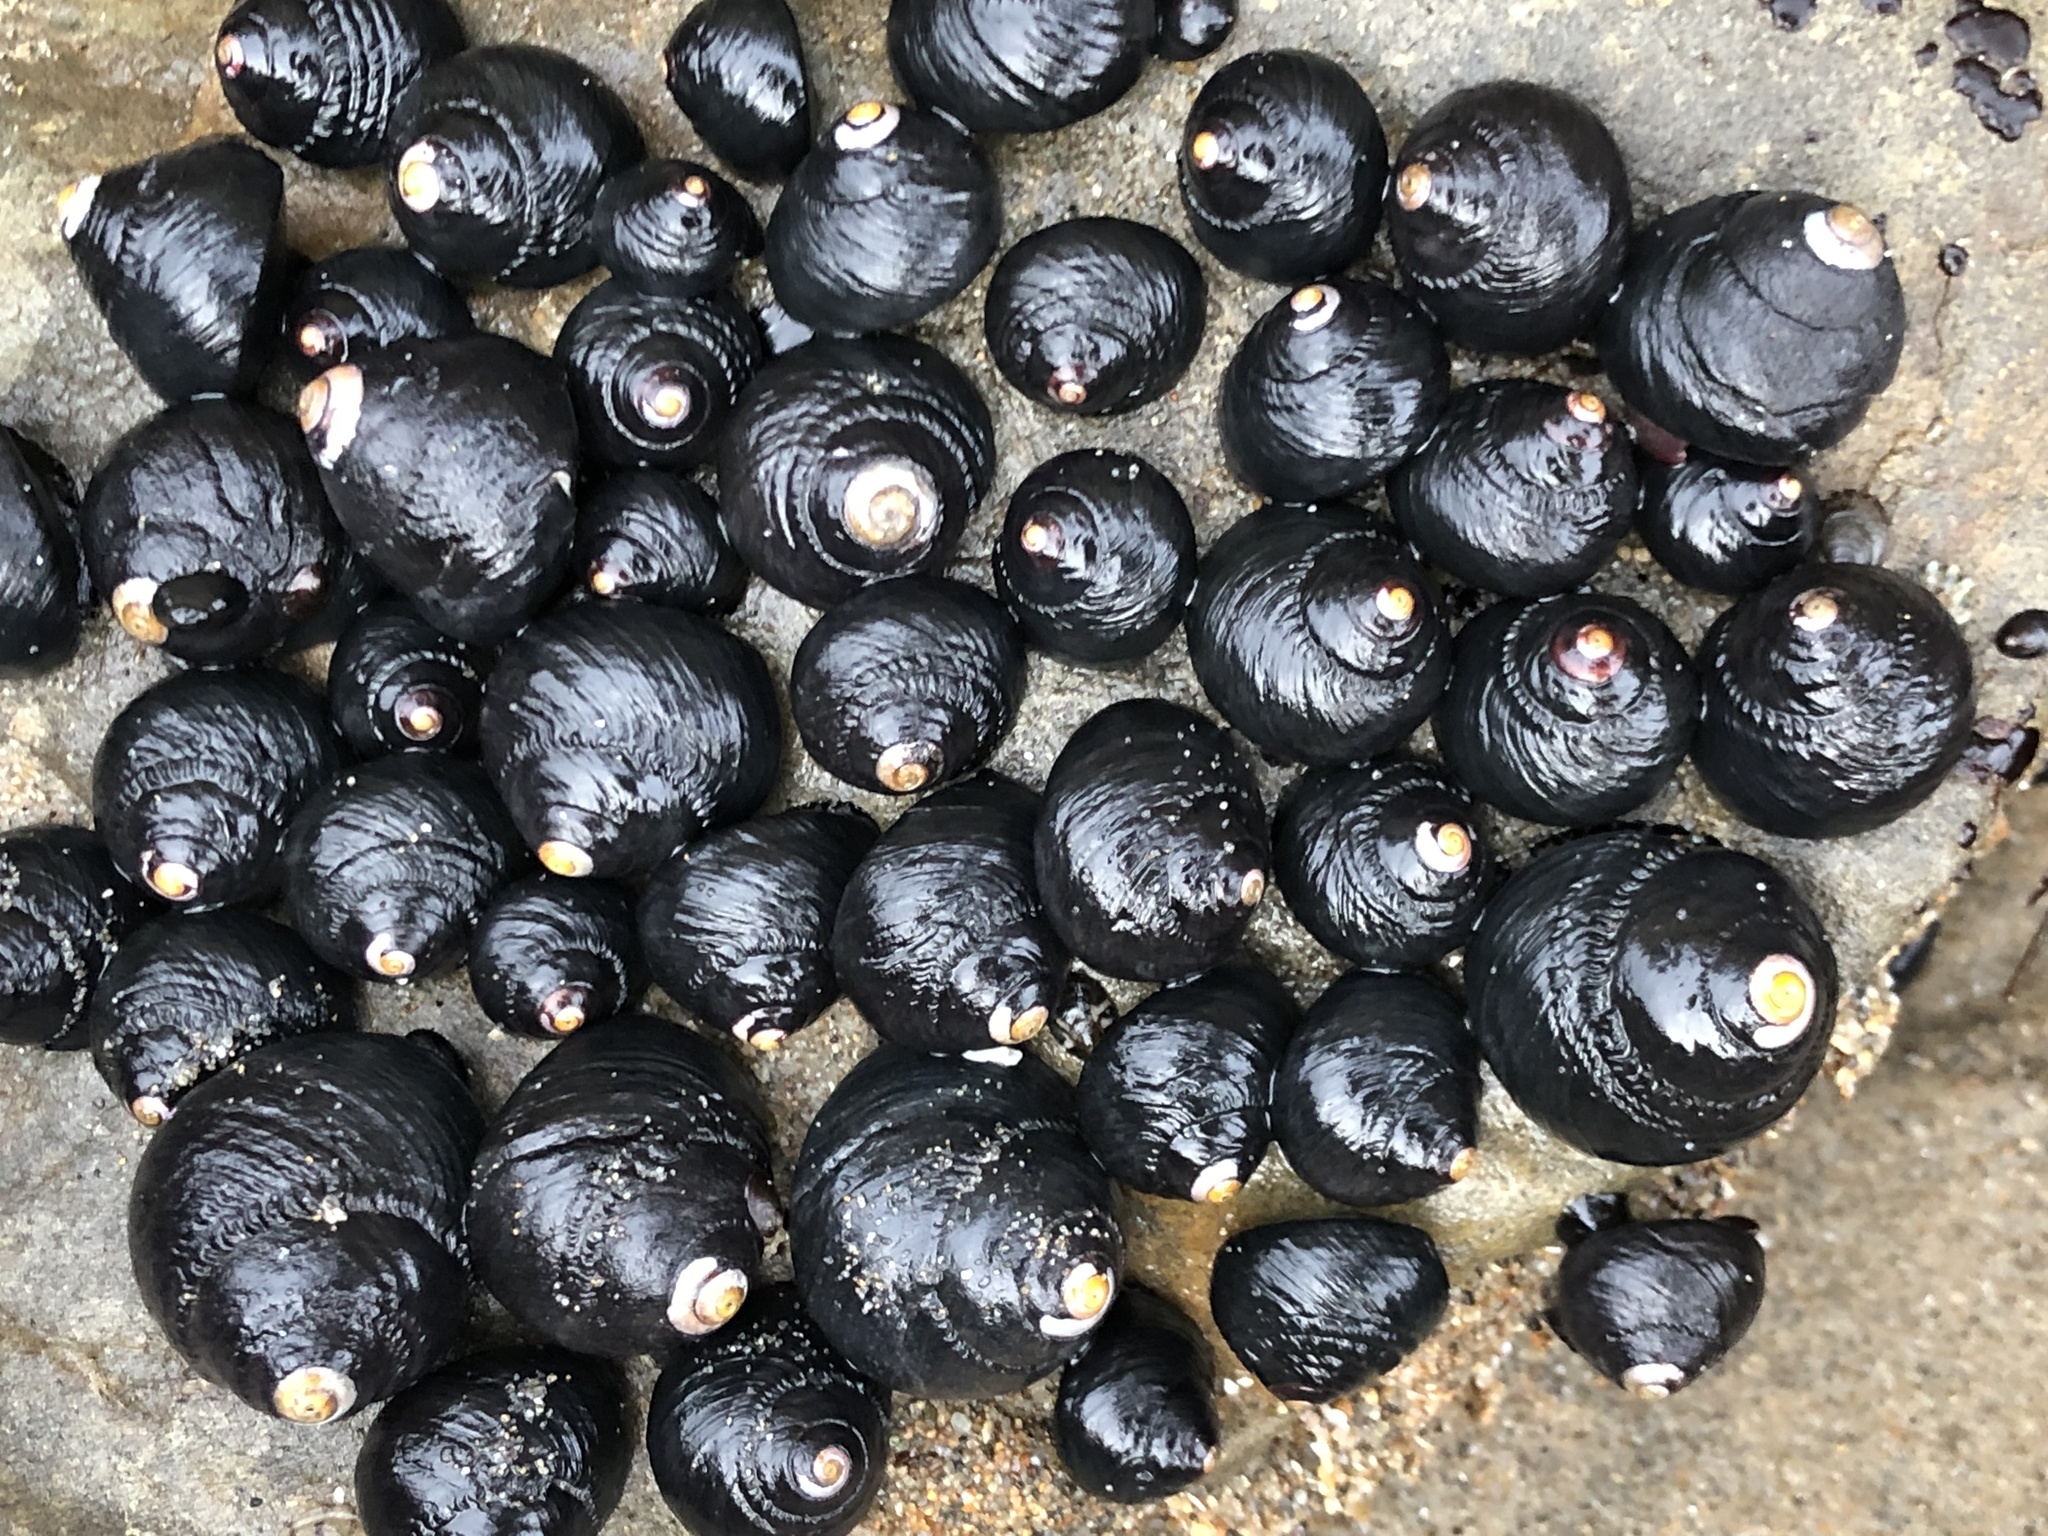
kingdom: Animalia
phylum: Mollusca
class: Gastropoda
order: Trochida
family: Tegulidae
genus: Tegula
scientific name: Tegula funebralis
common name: Black tegula
